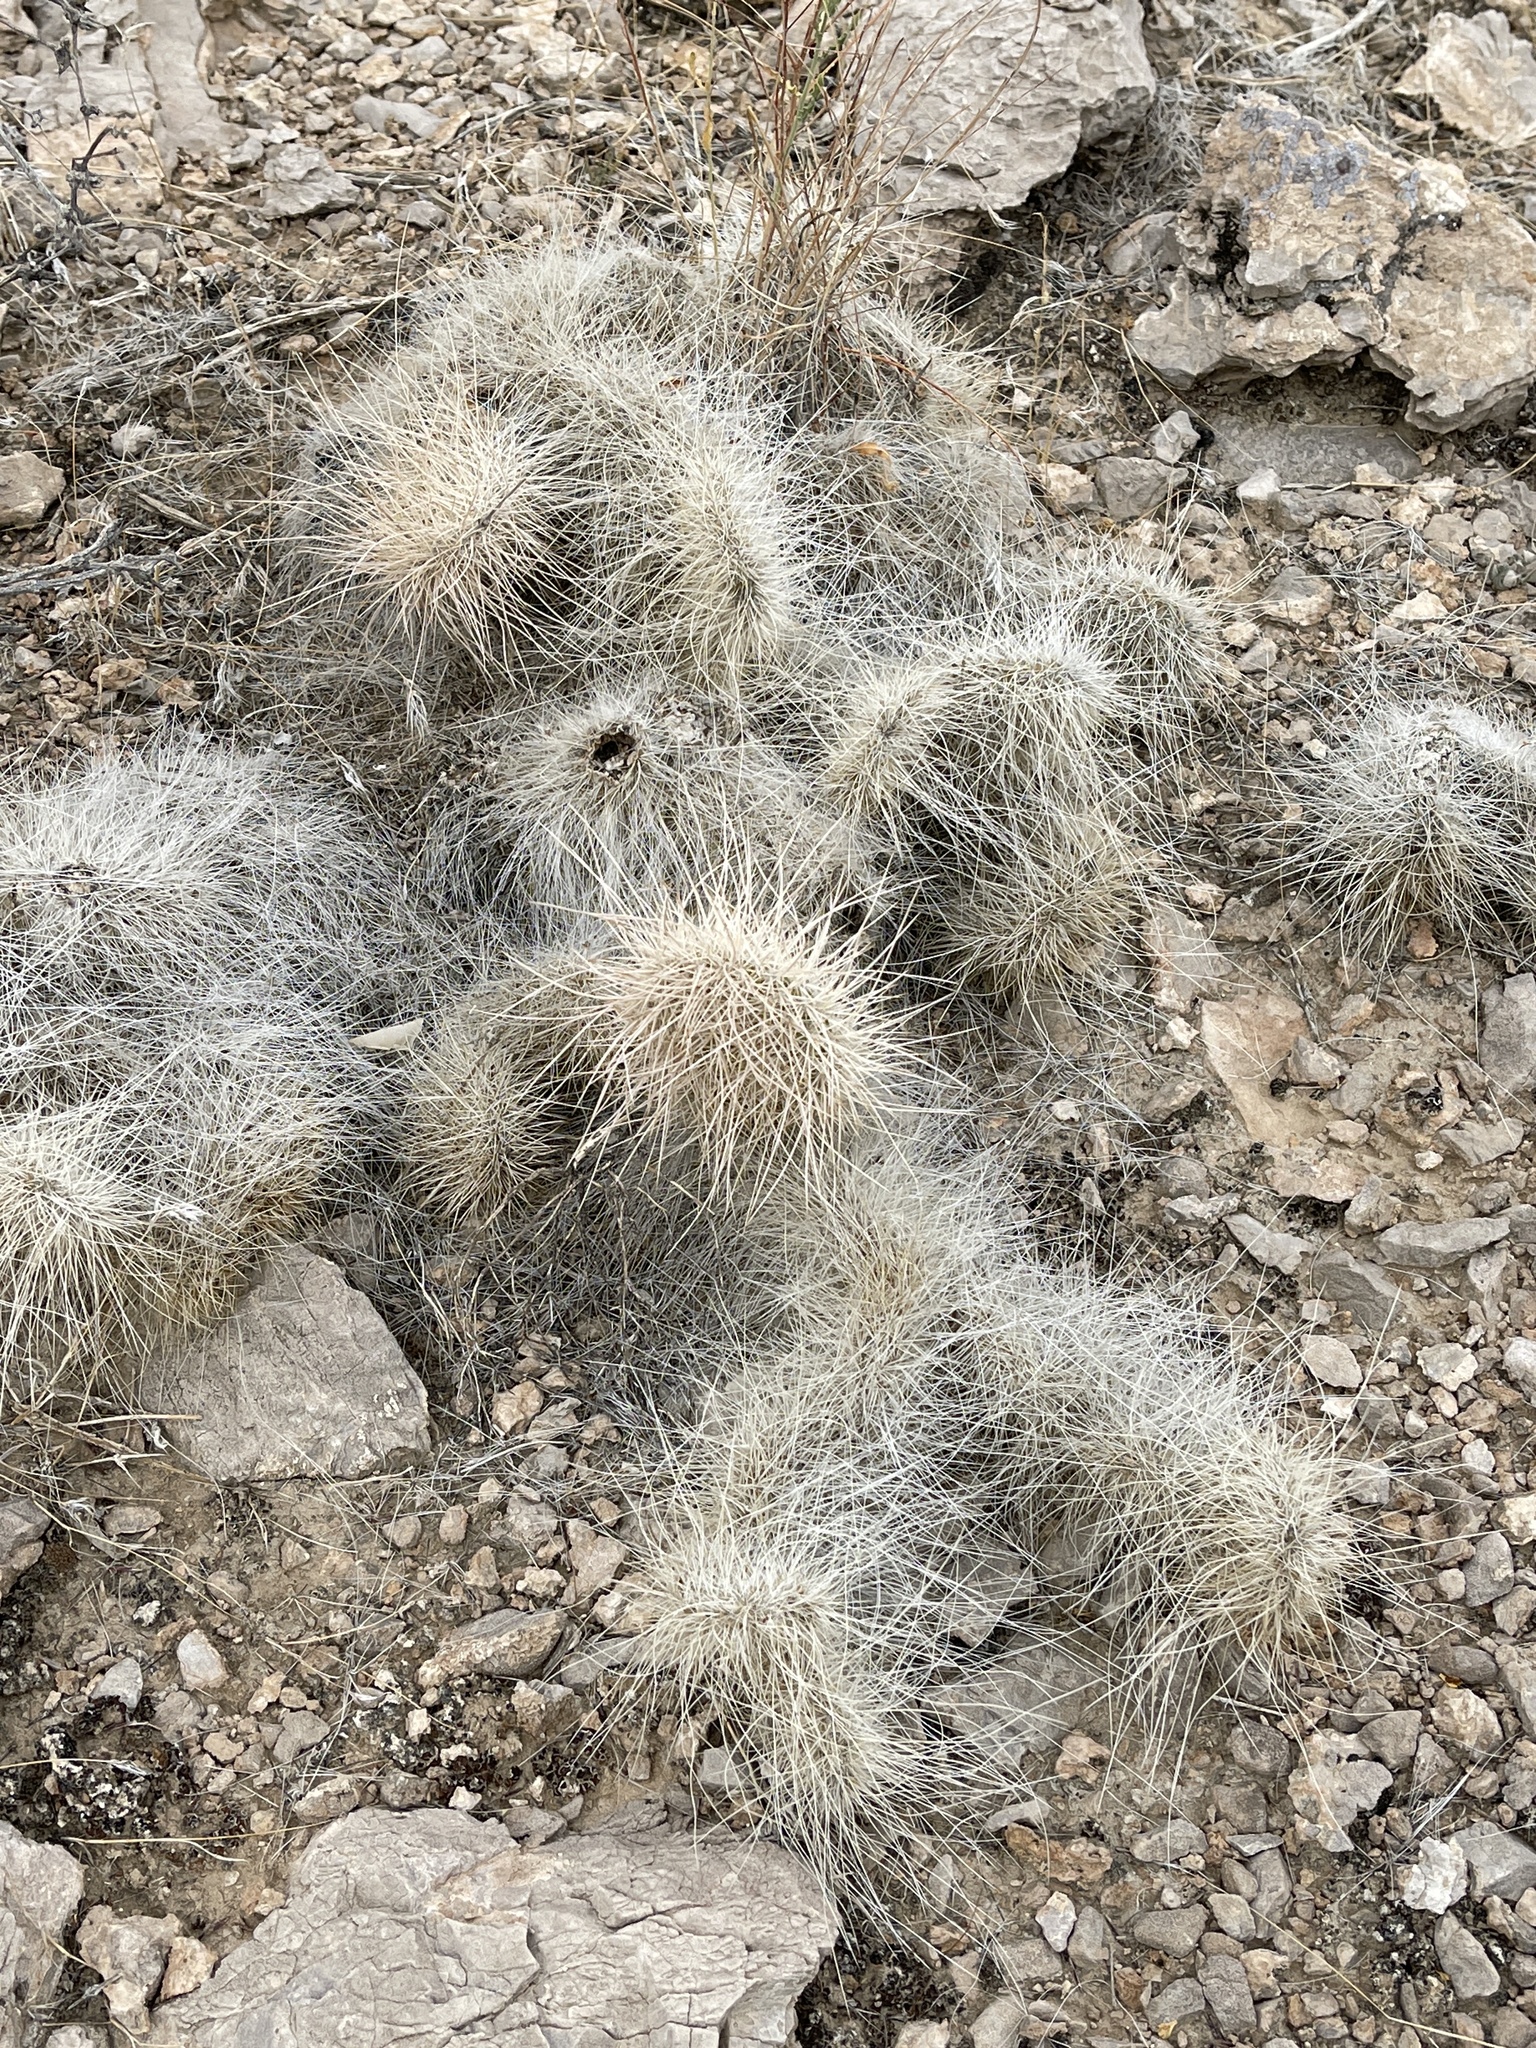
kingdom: Plantae
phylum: Tracheophyta
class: Magnoliopsida
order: Caryophyllales
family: Cactaceae
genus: Opuntia
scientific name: Opuntia polyacantha
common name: Plains prickly-pear
